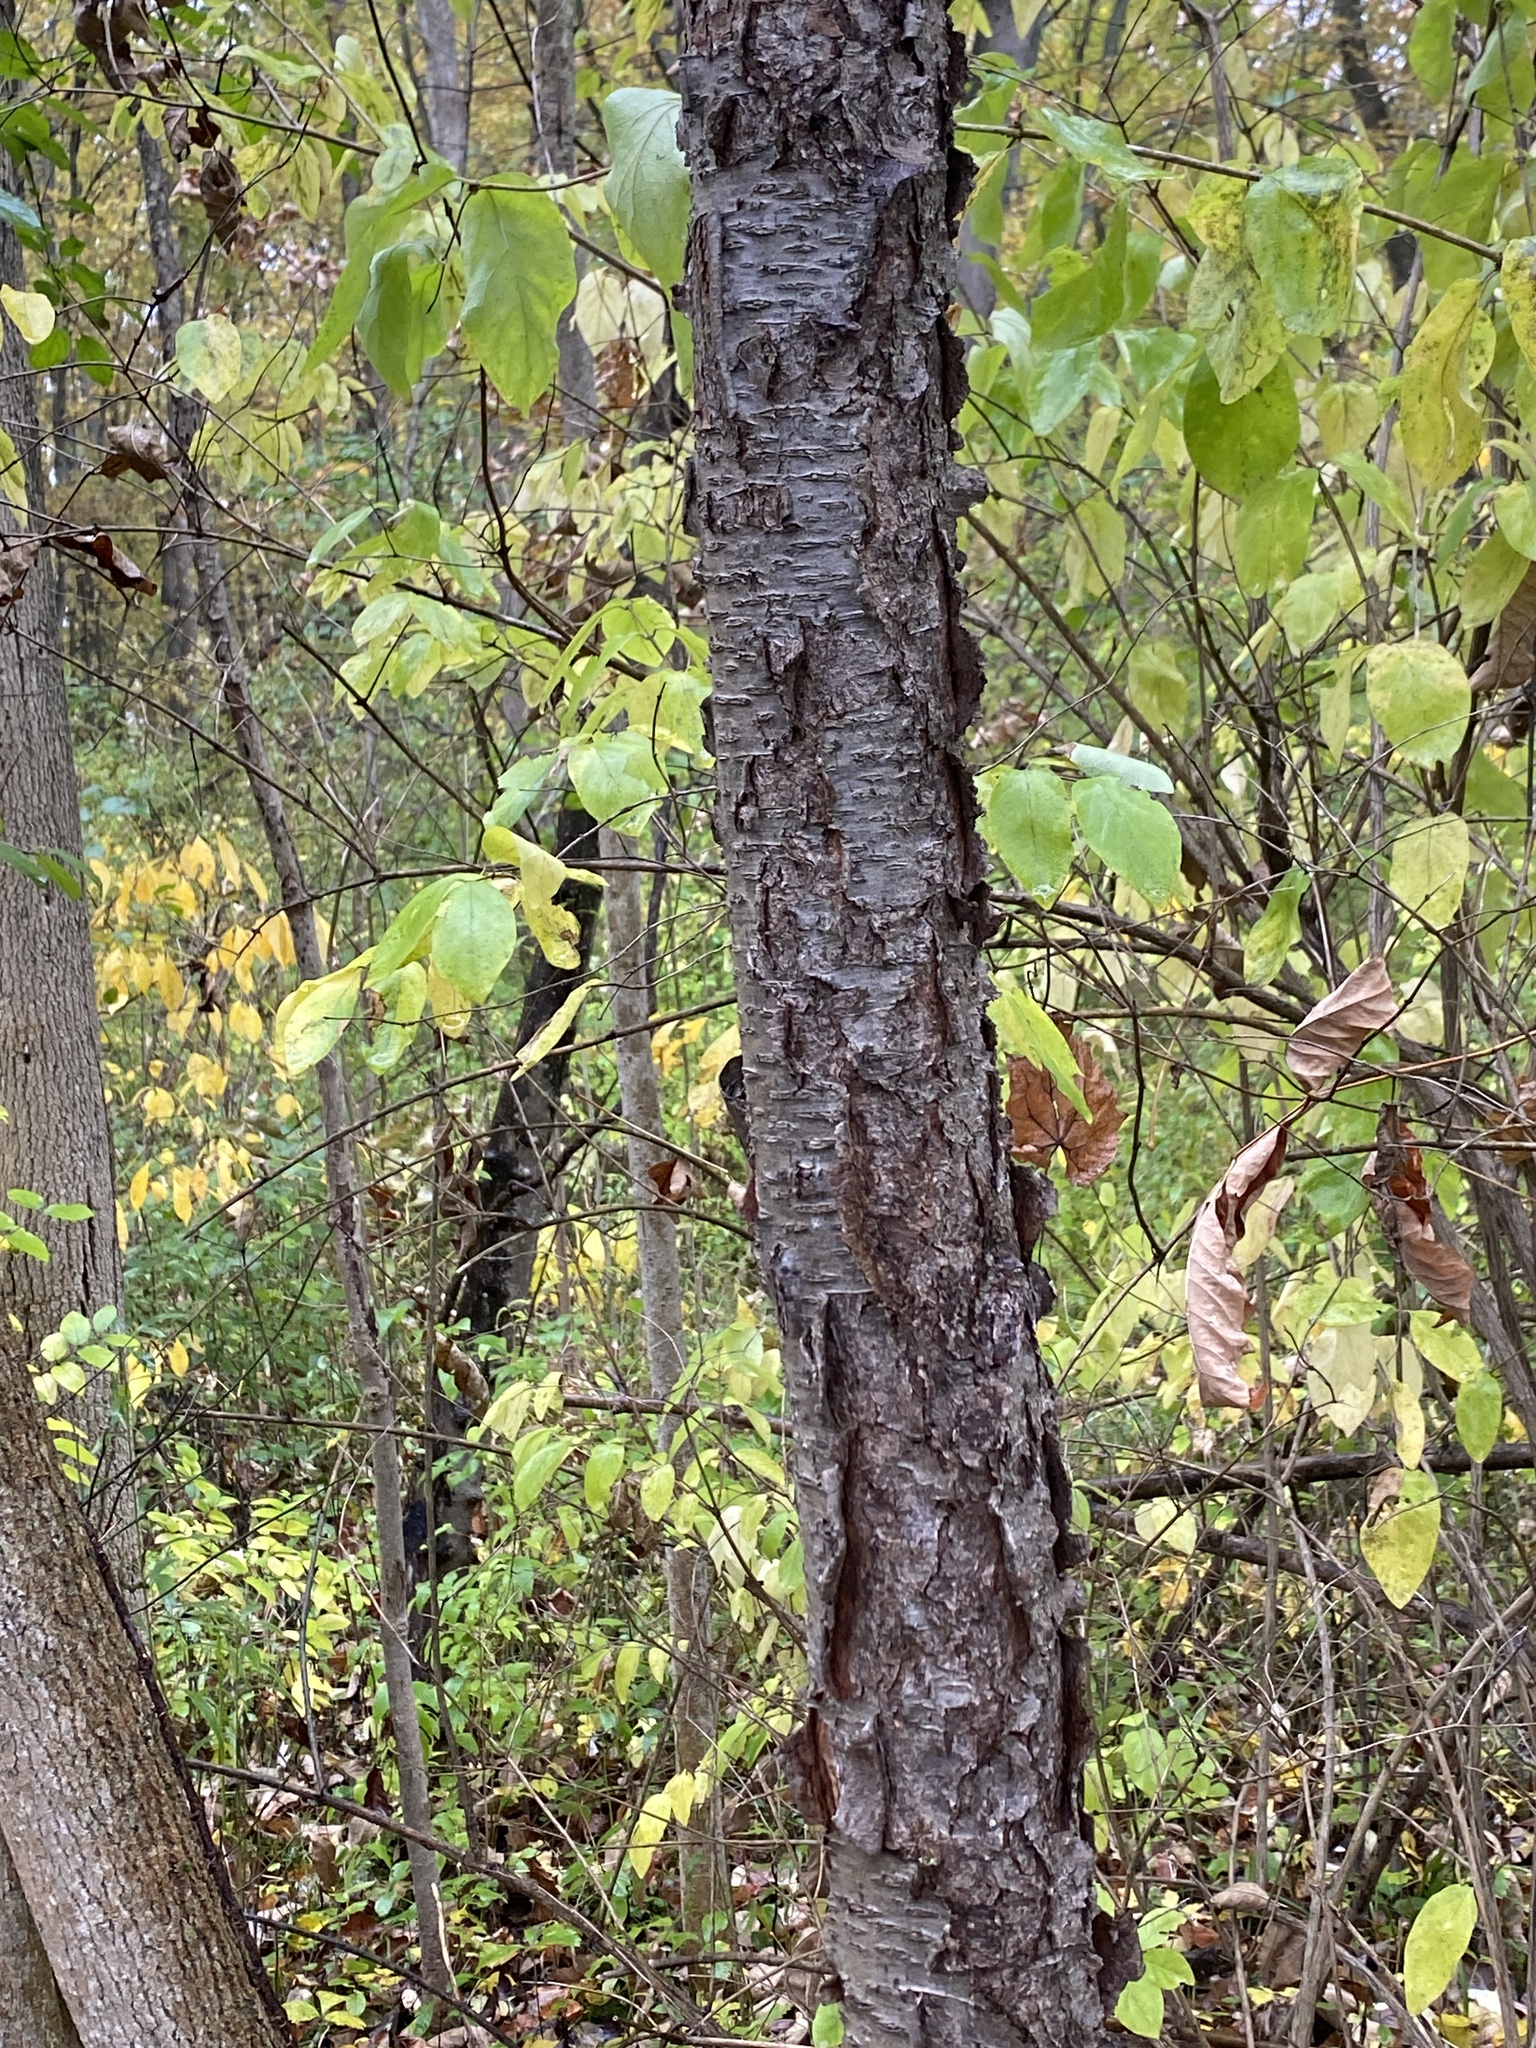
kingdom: Plantae
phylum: Tracheophyta
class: Magnoliopsida
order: Rosales
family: Rosaceae
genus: Prunus
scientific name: Prunus serotina
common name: Black cherry
